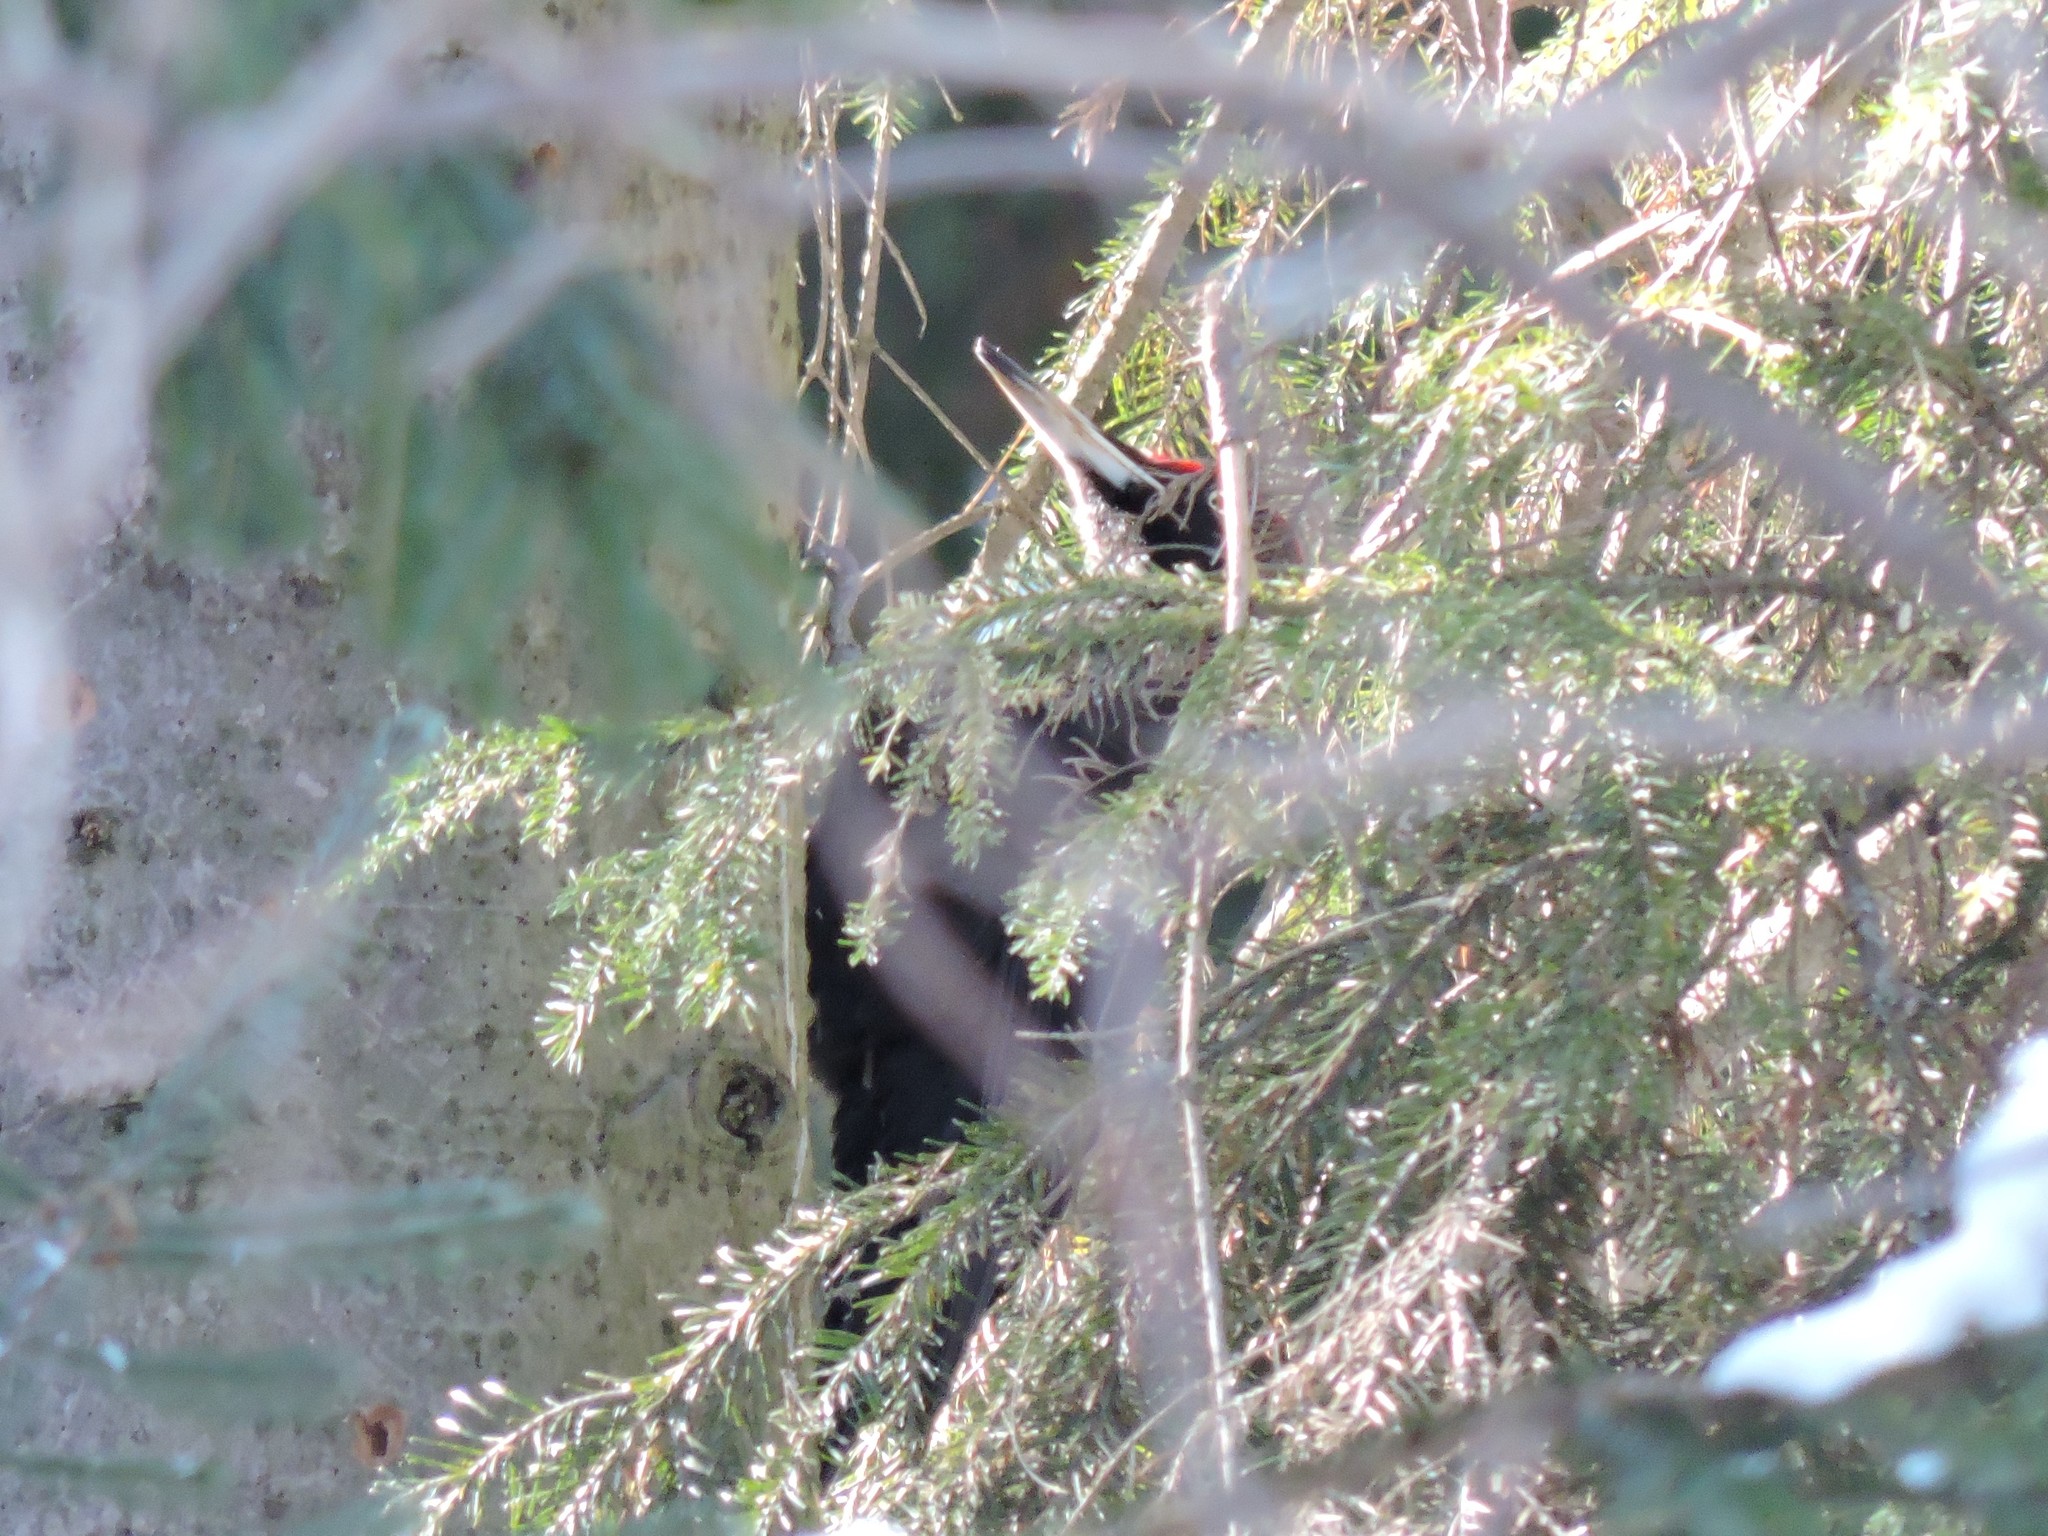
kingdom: Animalia
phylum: Chordata
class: Aves
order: Piciformes
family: Picidae
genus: Dryocopus
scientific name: Dryocopus martius
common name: Black woodpecker
